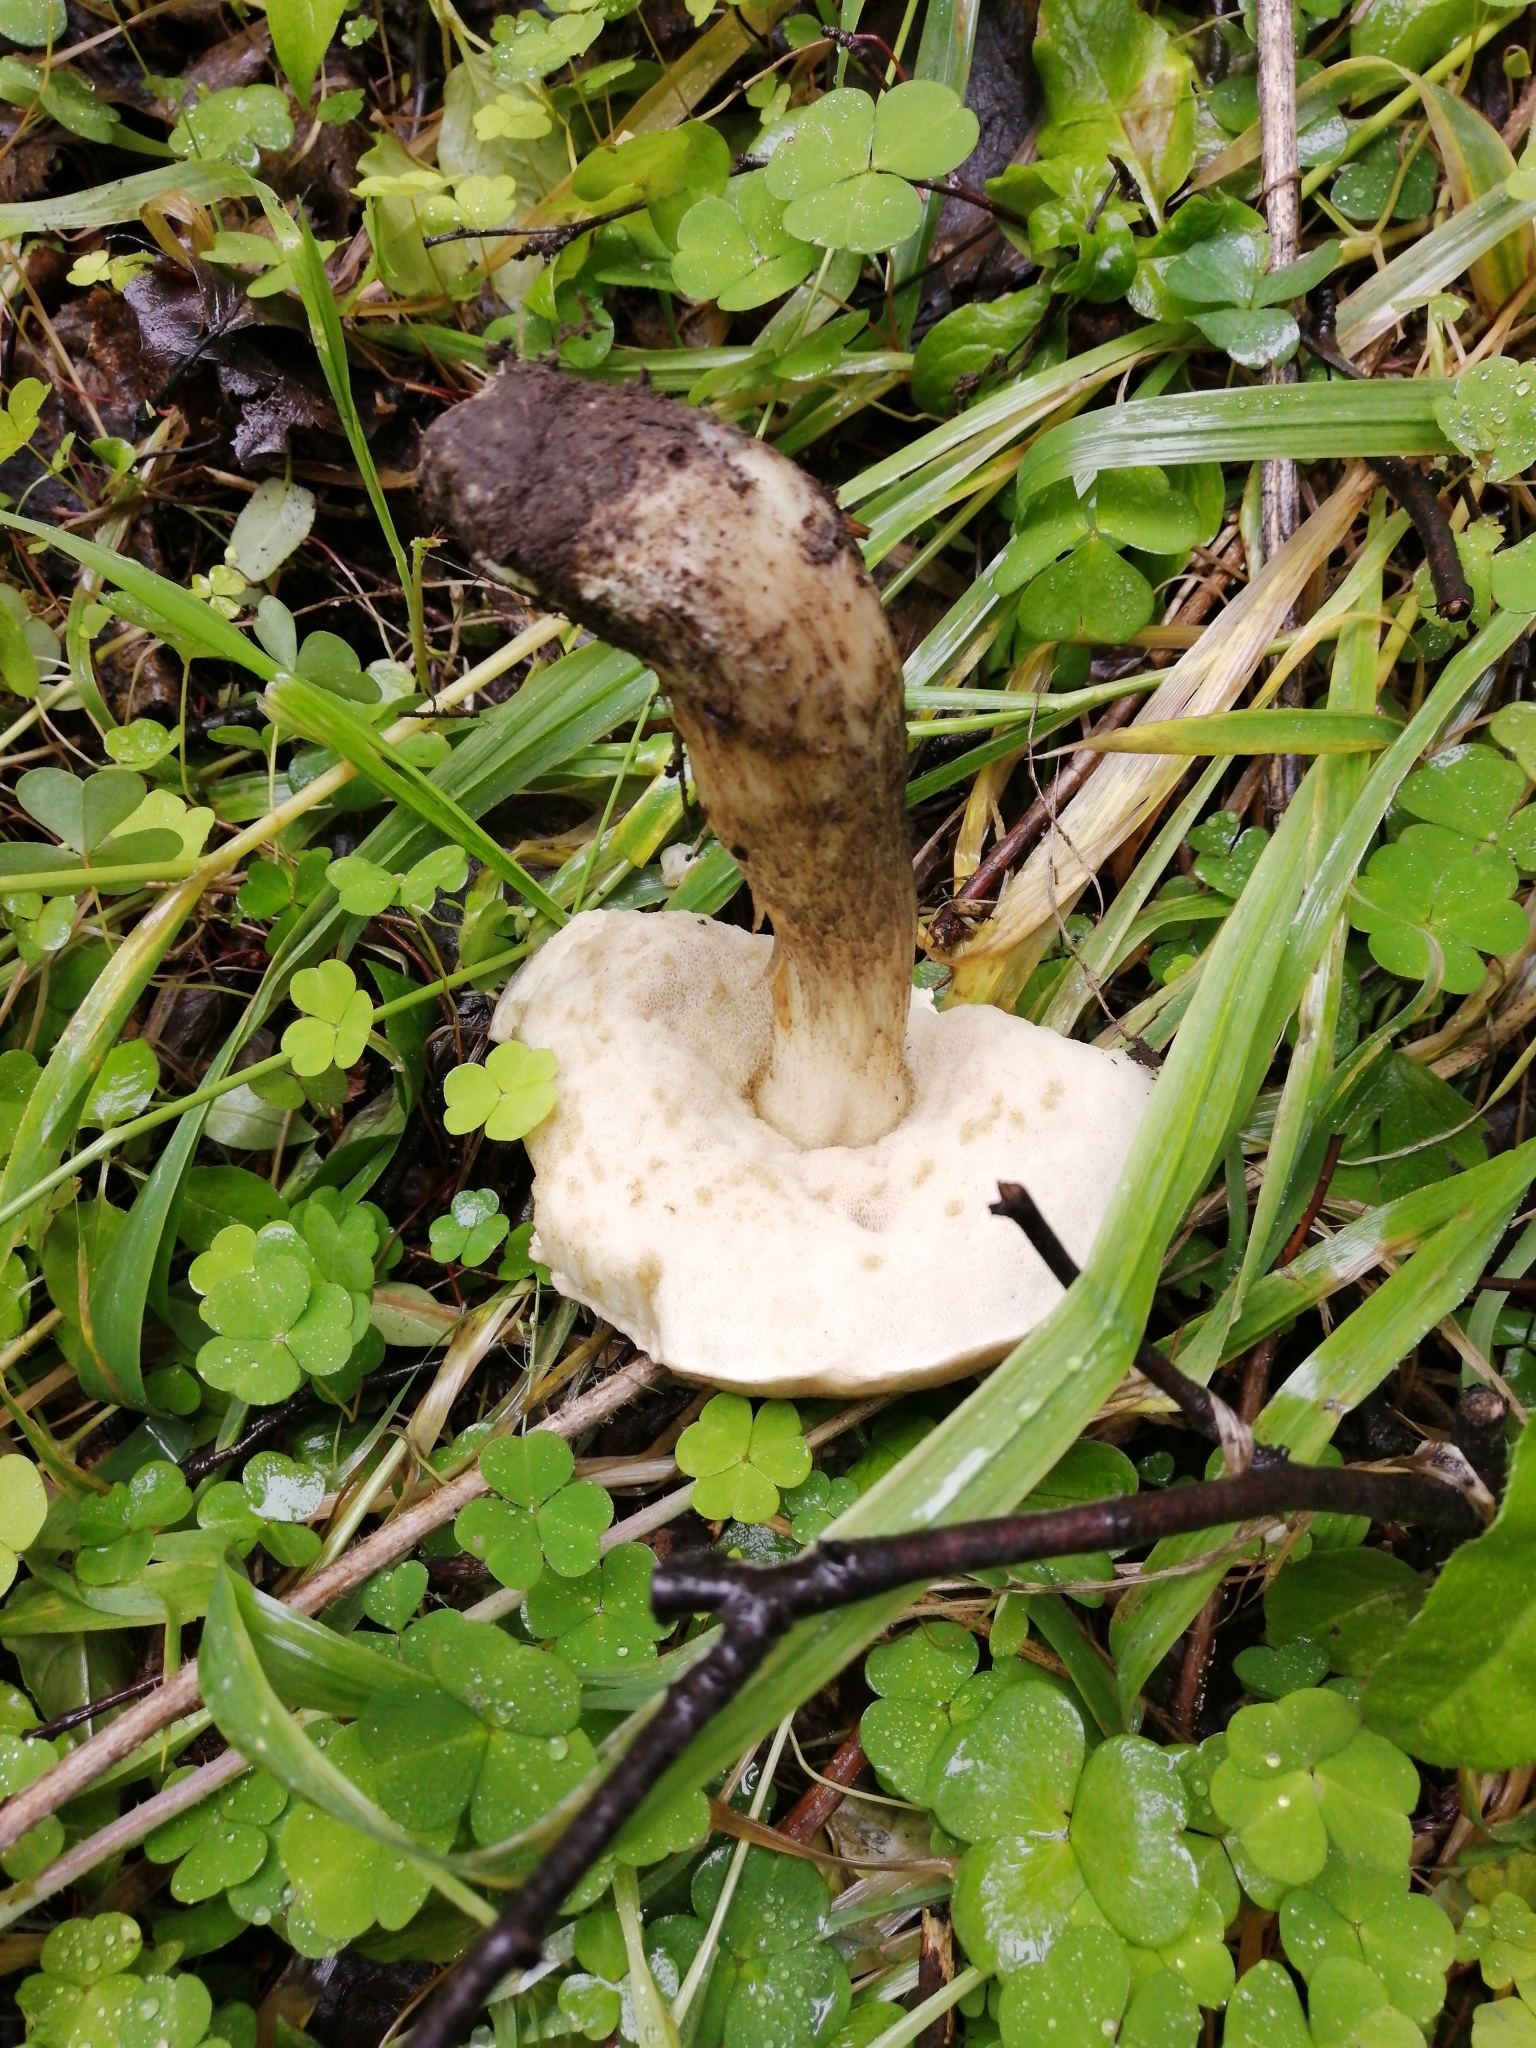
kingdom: Fungi
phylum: Basidiomycota
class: Agaricomycetes
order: Boletales
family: Boletaceae
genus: Leccinum
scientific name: Leccinum scabrum
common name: Blushing bolete
